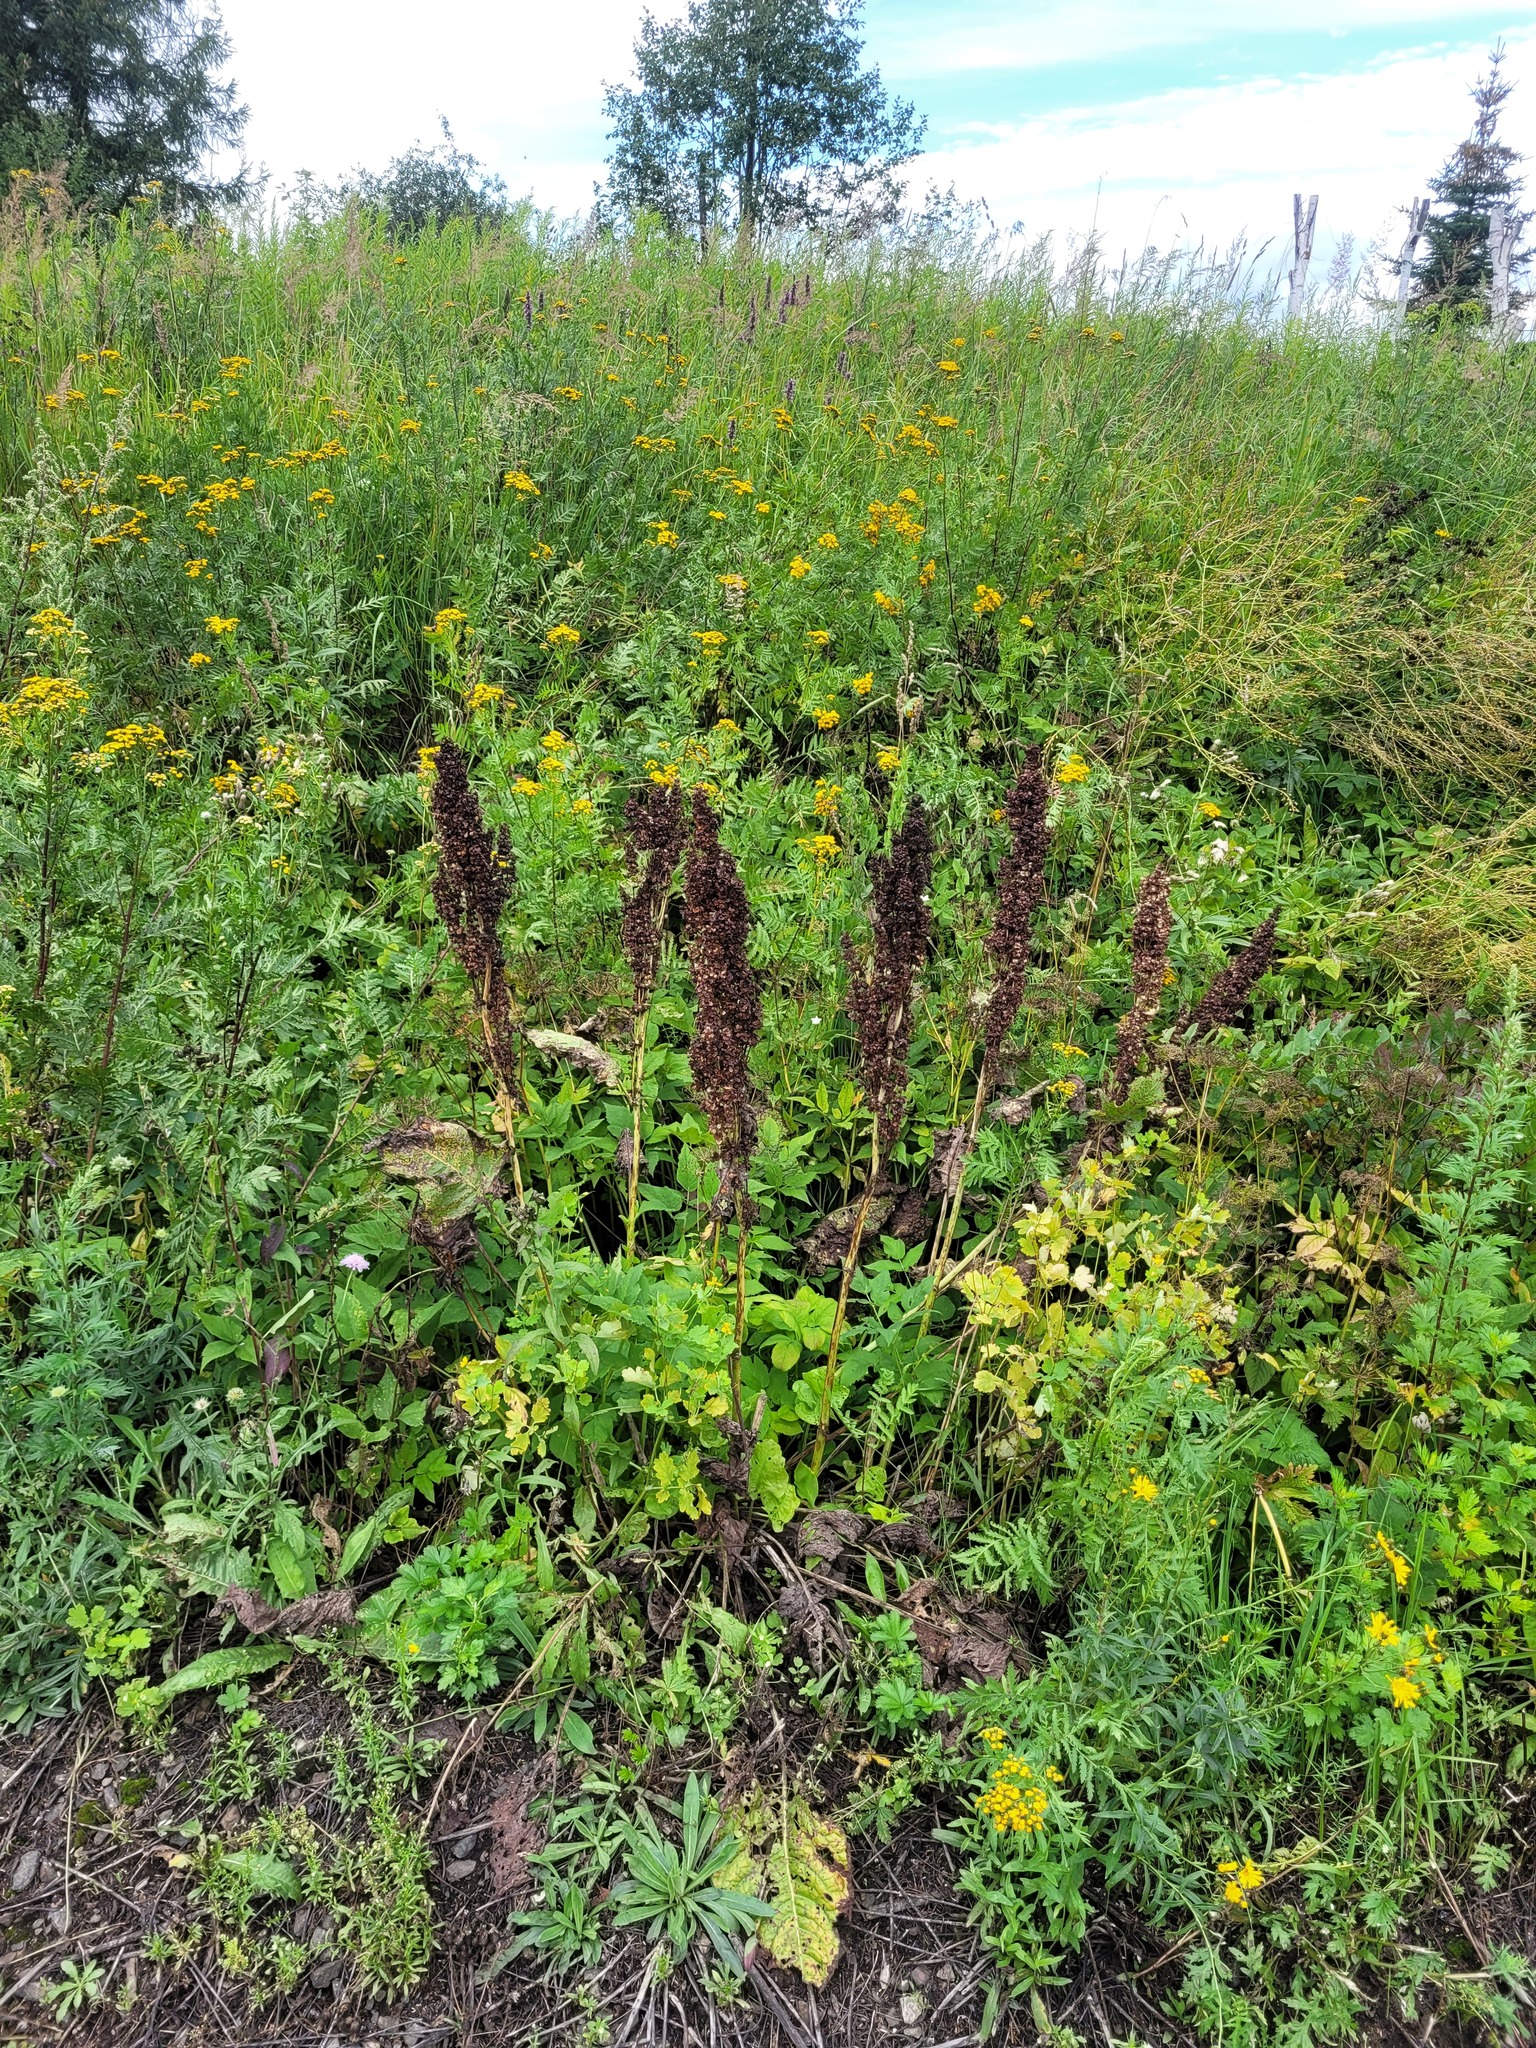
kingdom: Plantae
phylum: Tracheophyta
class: Magnoliopsida
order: Caryophyllales
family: Polygonaceae
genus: Rumex
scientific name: Rumex confertus
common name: Russian dock
